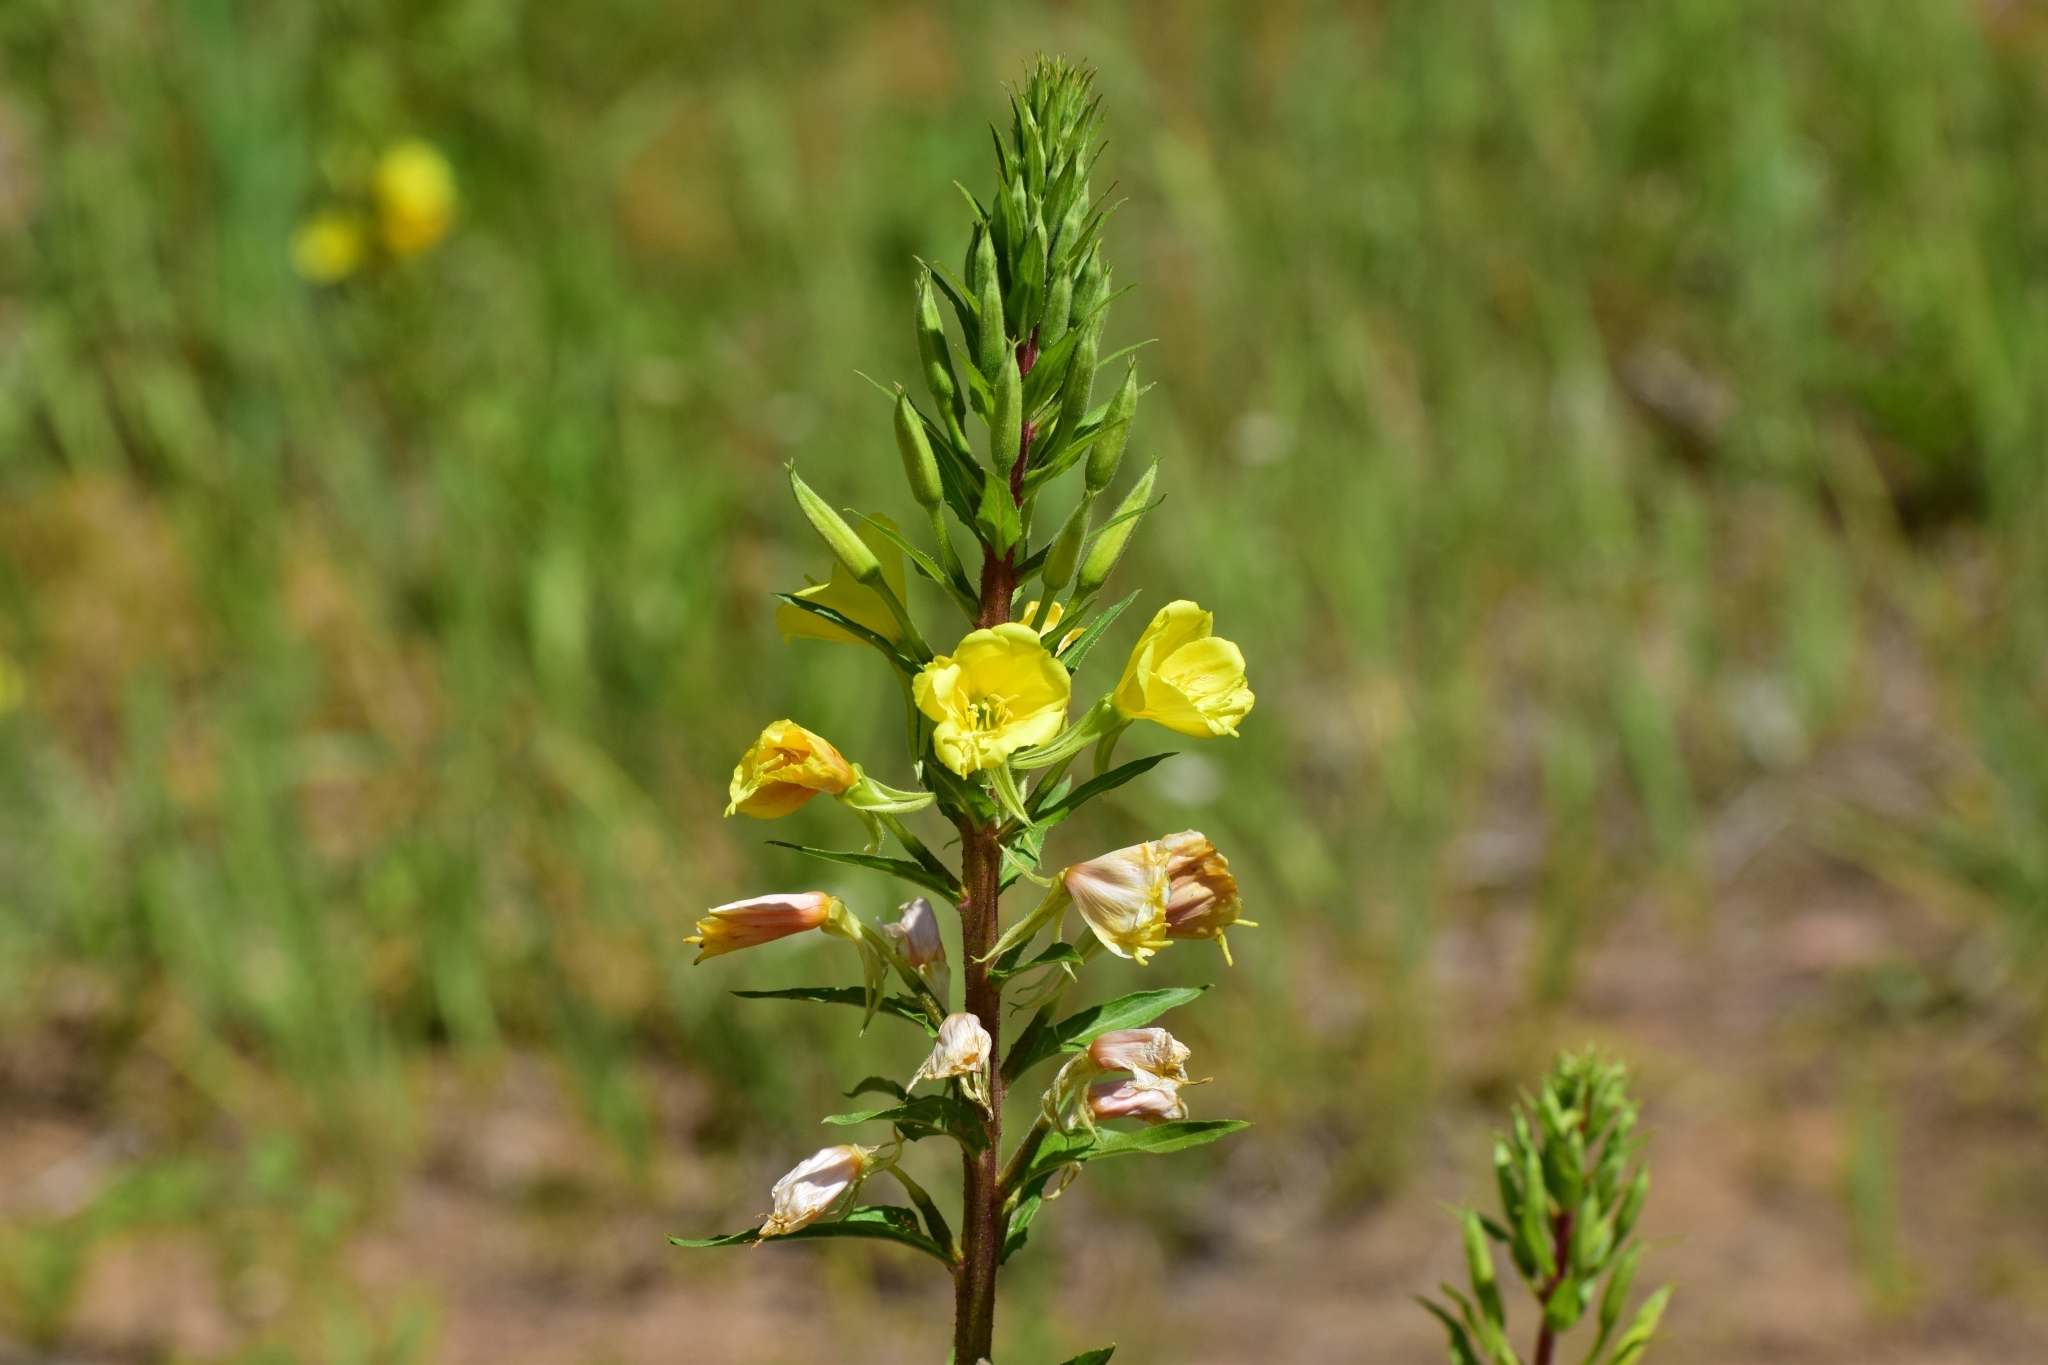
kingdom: Plantae
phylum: Tracheophyta
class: Magnoliopsida
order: Myrtales
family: Onagraceae
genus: Oenothera
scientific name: Oenothera rubricaulis
